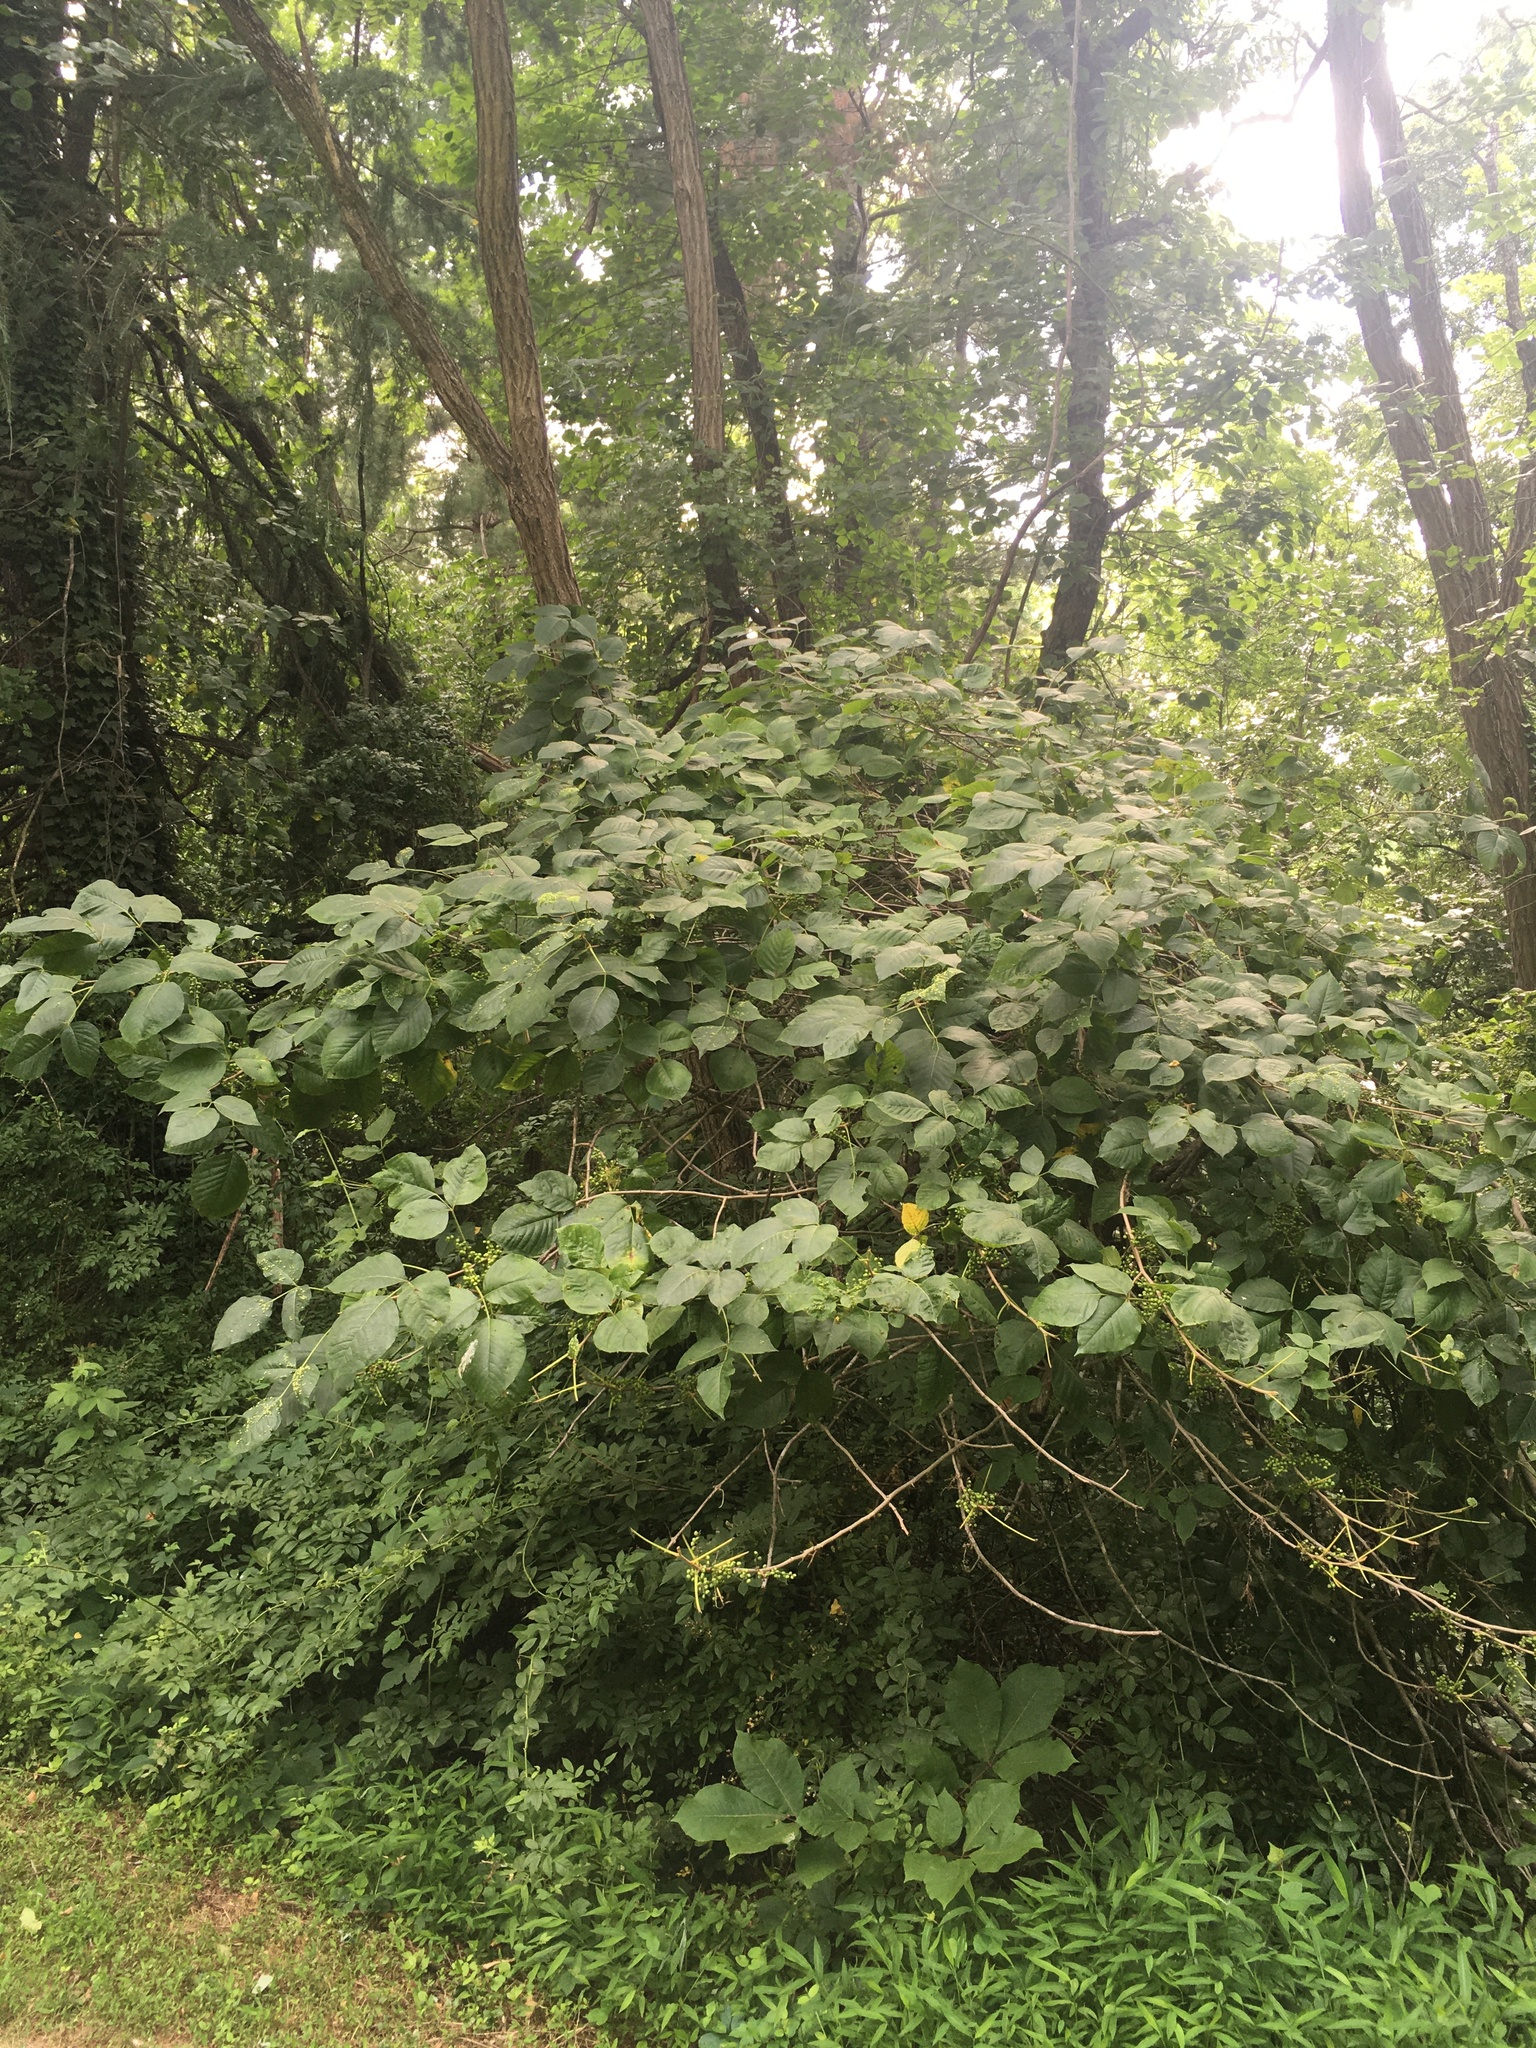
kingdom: Plantae
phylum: Tracheophyta
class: Magnoliopsida
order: Sapindales
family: Anacardiaceae
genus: Toxicodendron
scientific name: Toxicodendron radicans
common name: Poison ivy
